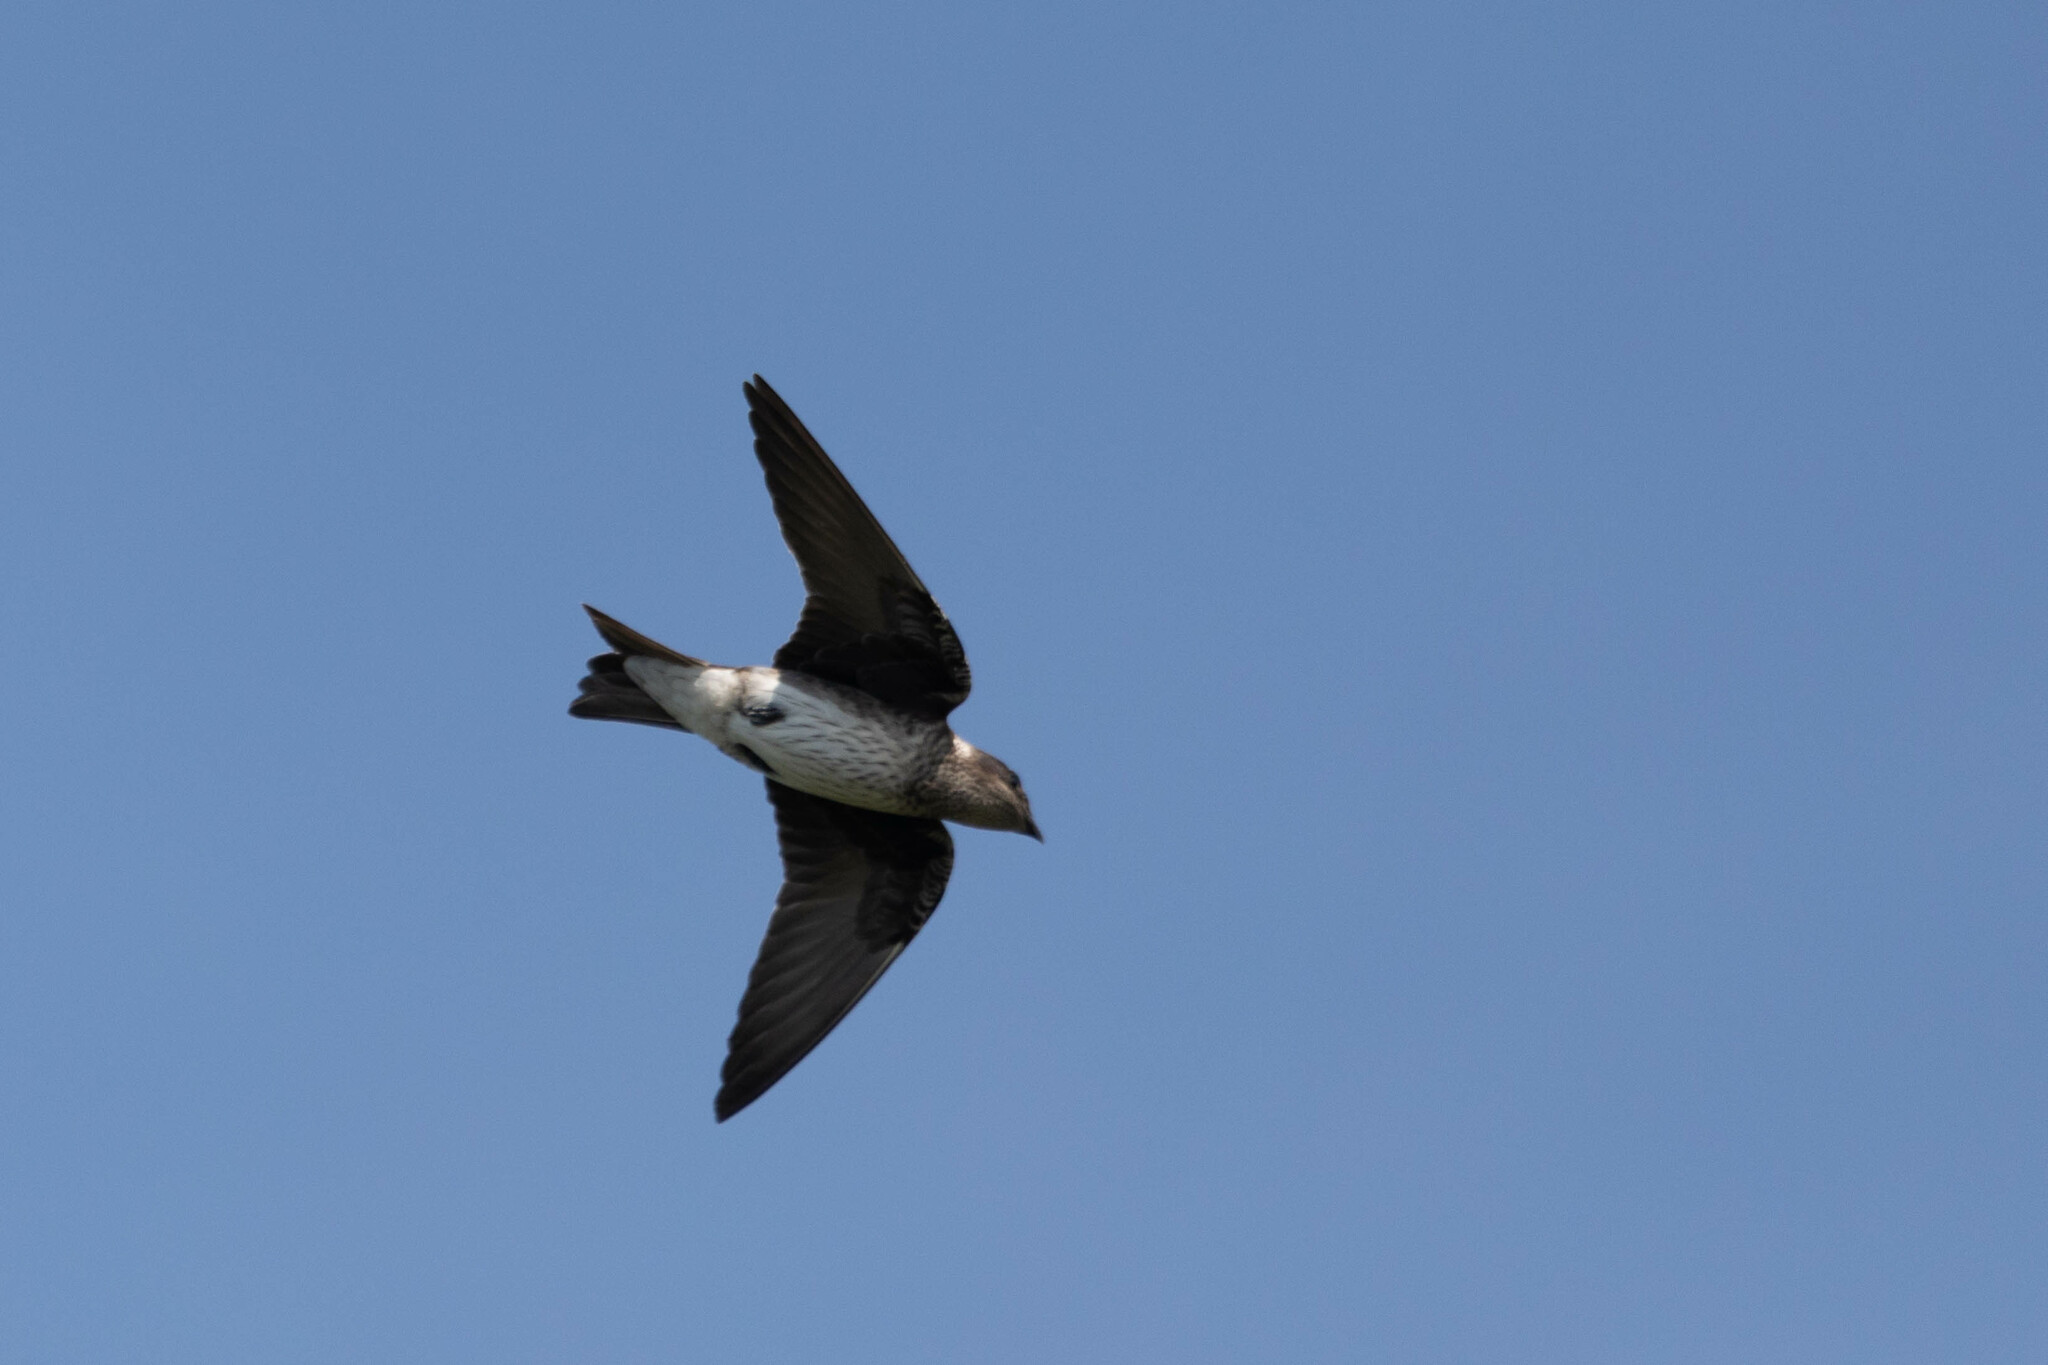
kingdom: Animalia
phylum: Chordata
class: Aves
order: Passeriformes
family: Hirundinidae
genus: Progne
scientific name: Progne subis
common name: Purple martin
